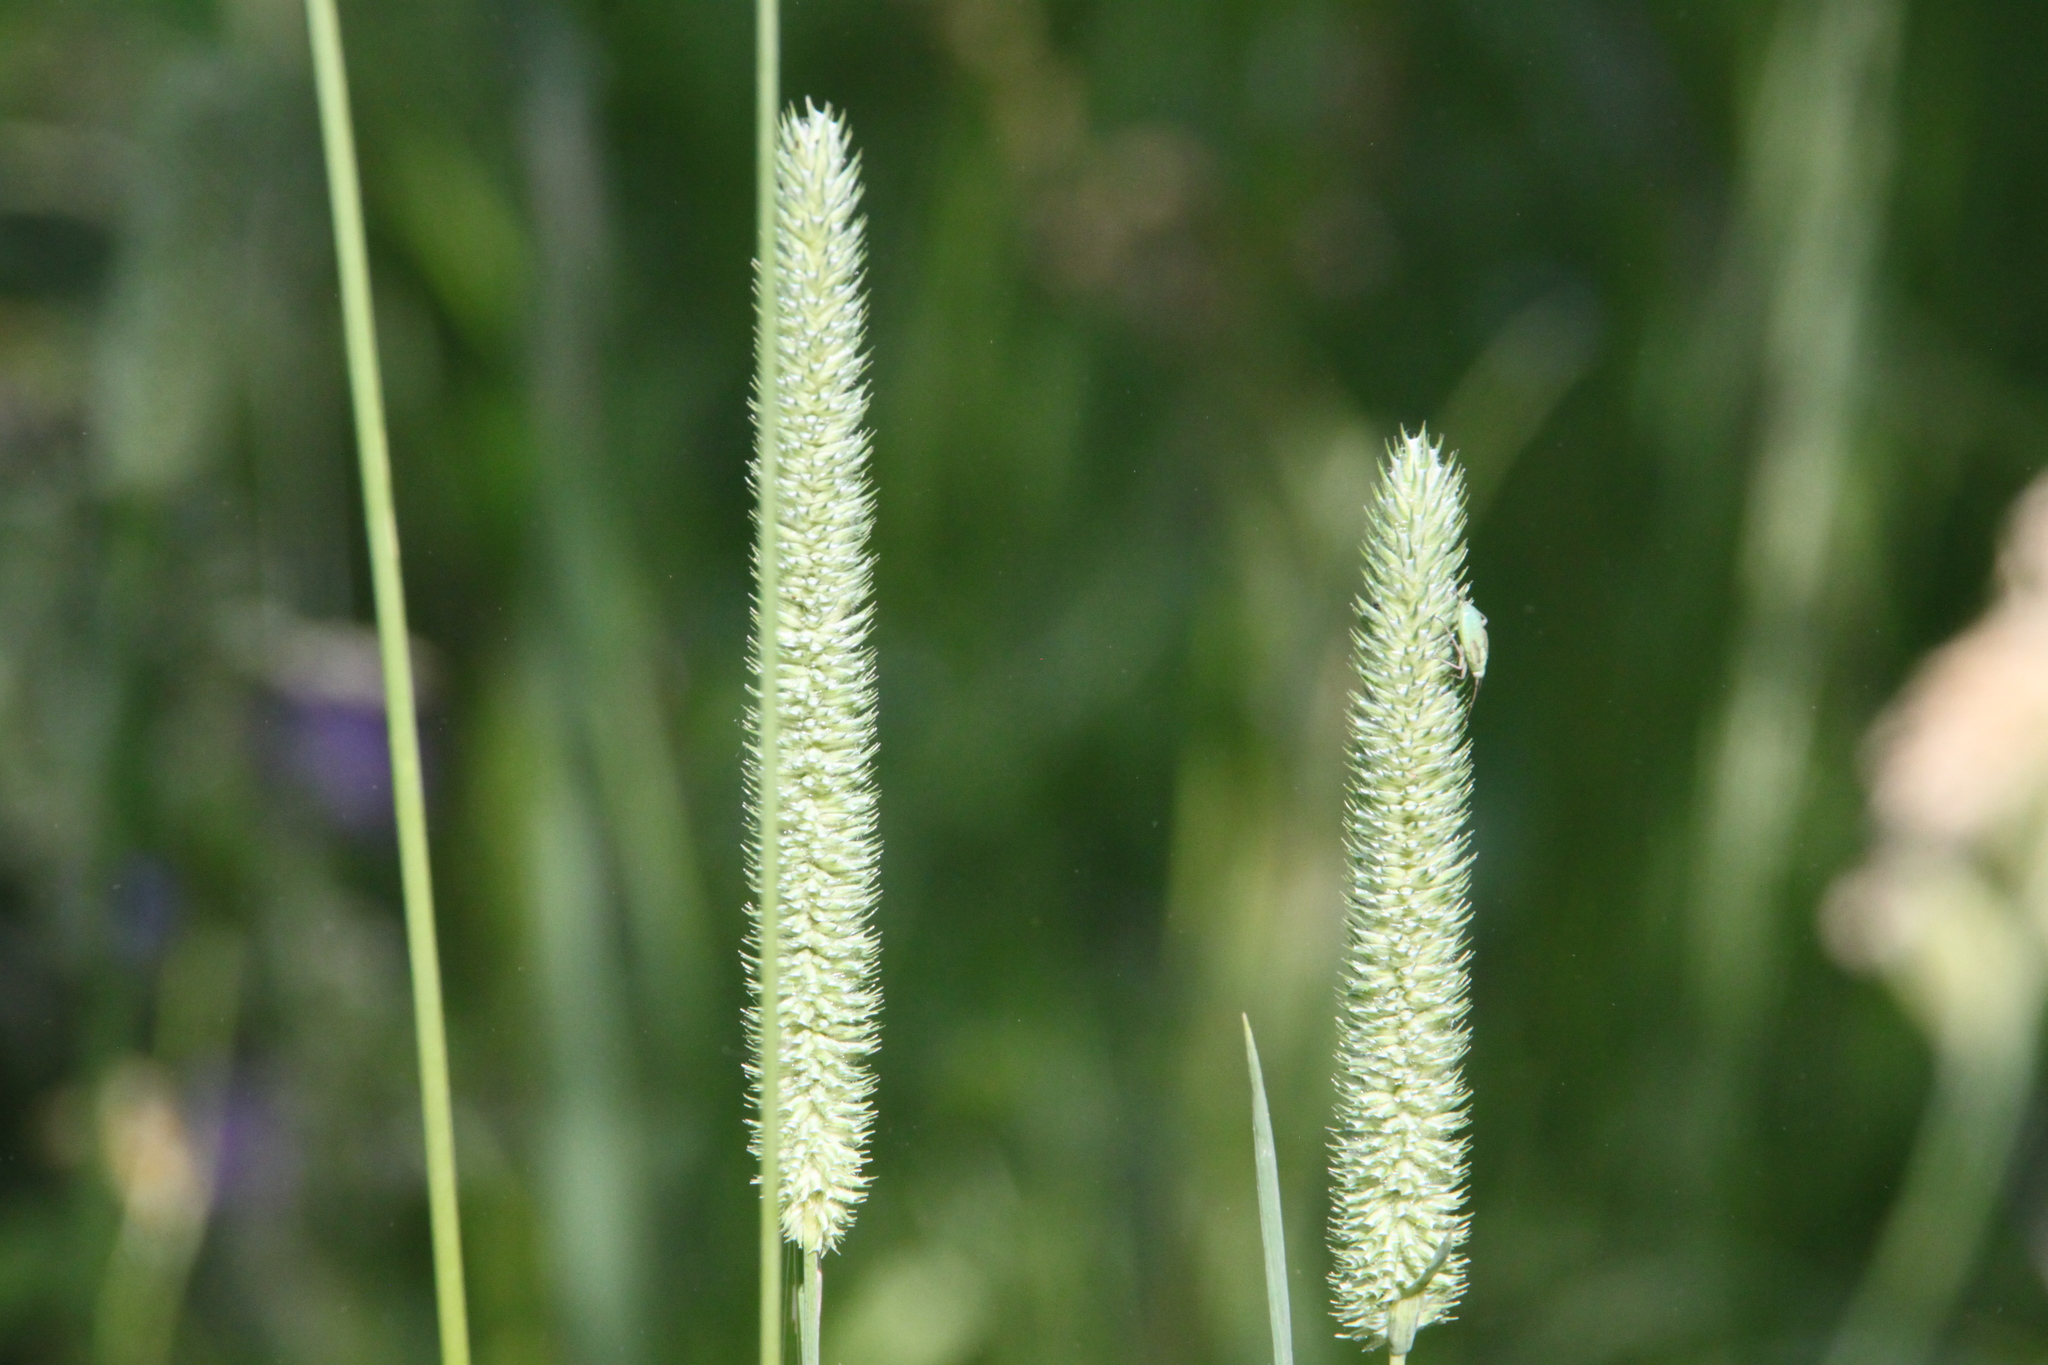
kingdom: Plantae
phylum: Tracheophyta
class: Liliopsida
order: Poales
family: Poaceae
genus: Phleum
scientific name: Phleum pratense
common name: Timothy grass
